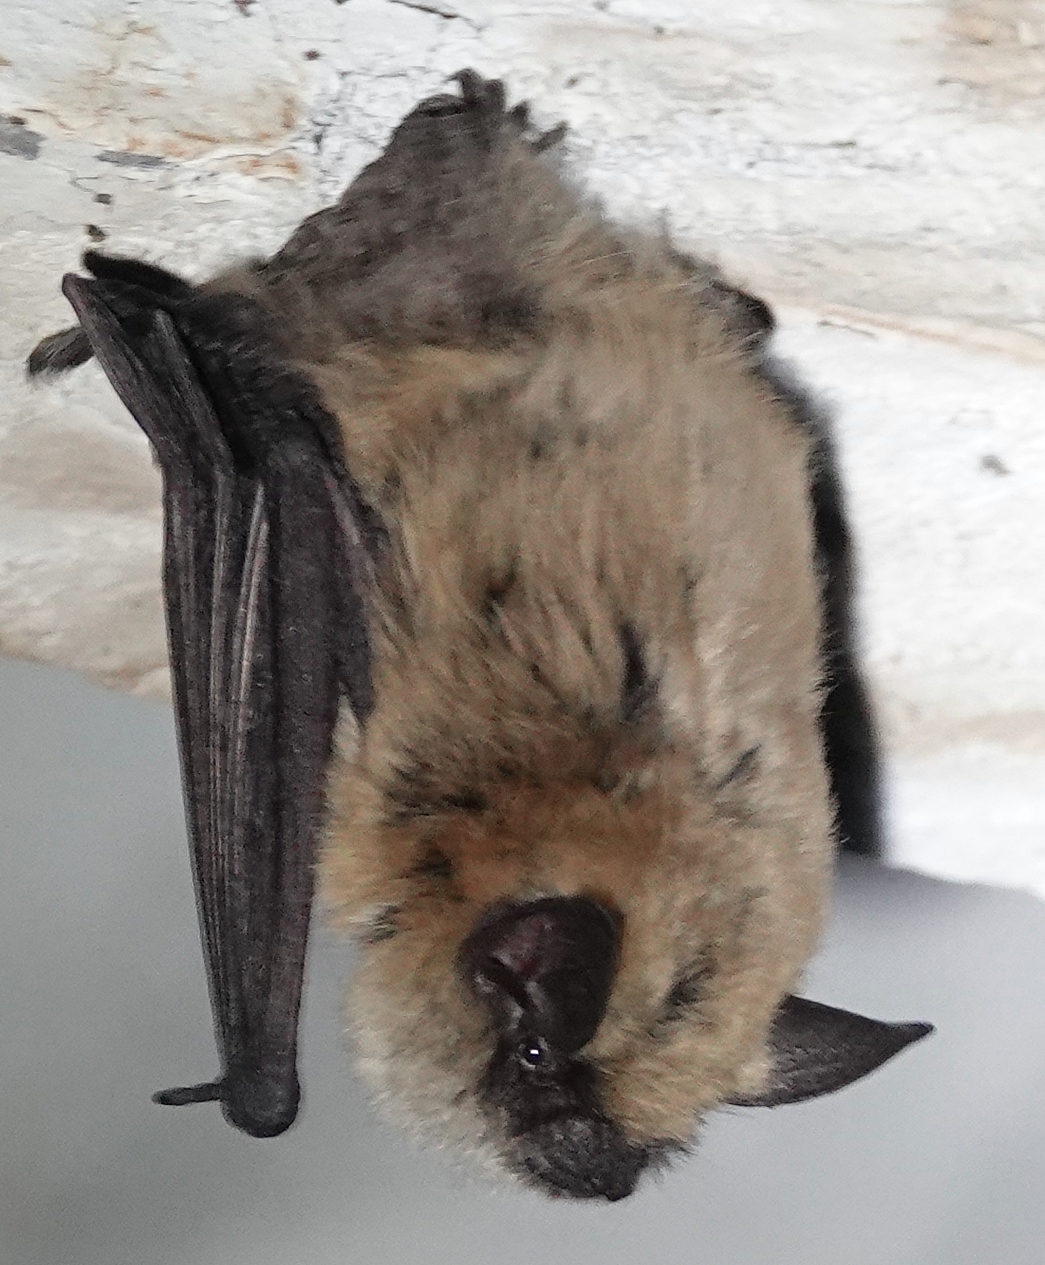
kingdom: Animalia
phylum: Chordata
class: Mammalia
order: Chiroptera
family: Vespertilionidae
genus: Myotis
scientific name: Myotis ciliolabrum
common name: Western small-footed myotis
